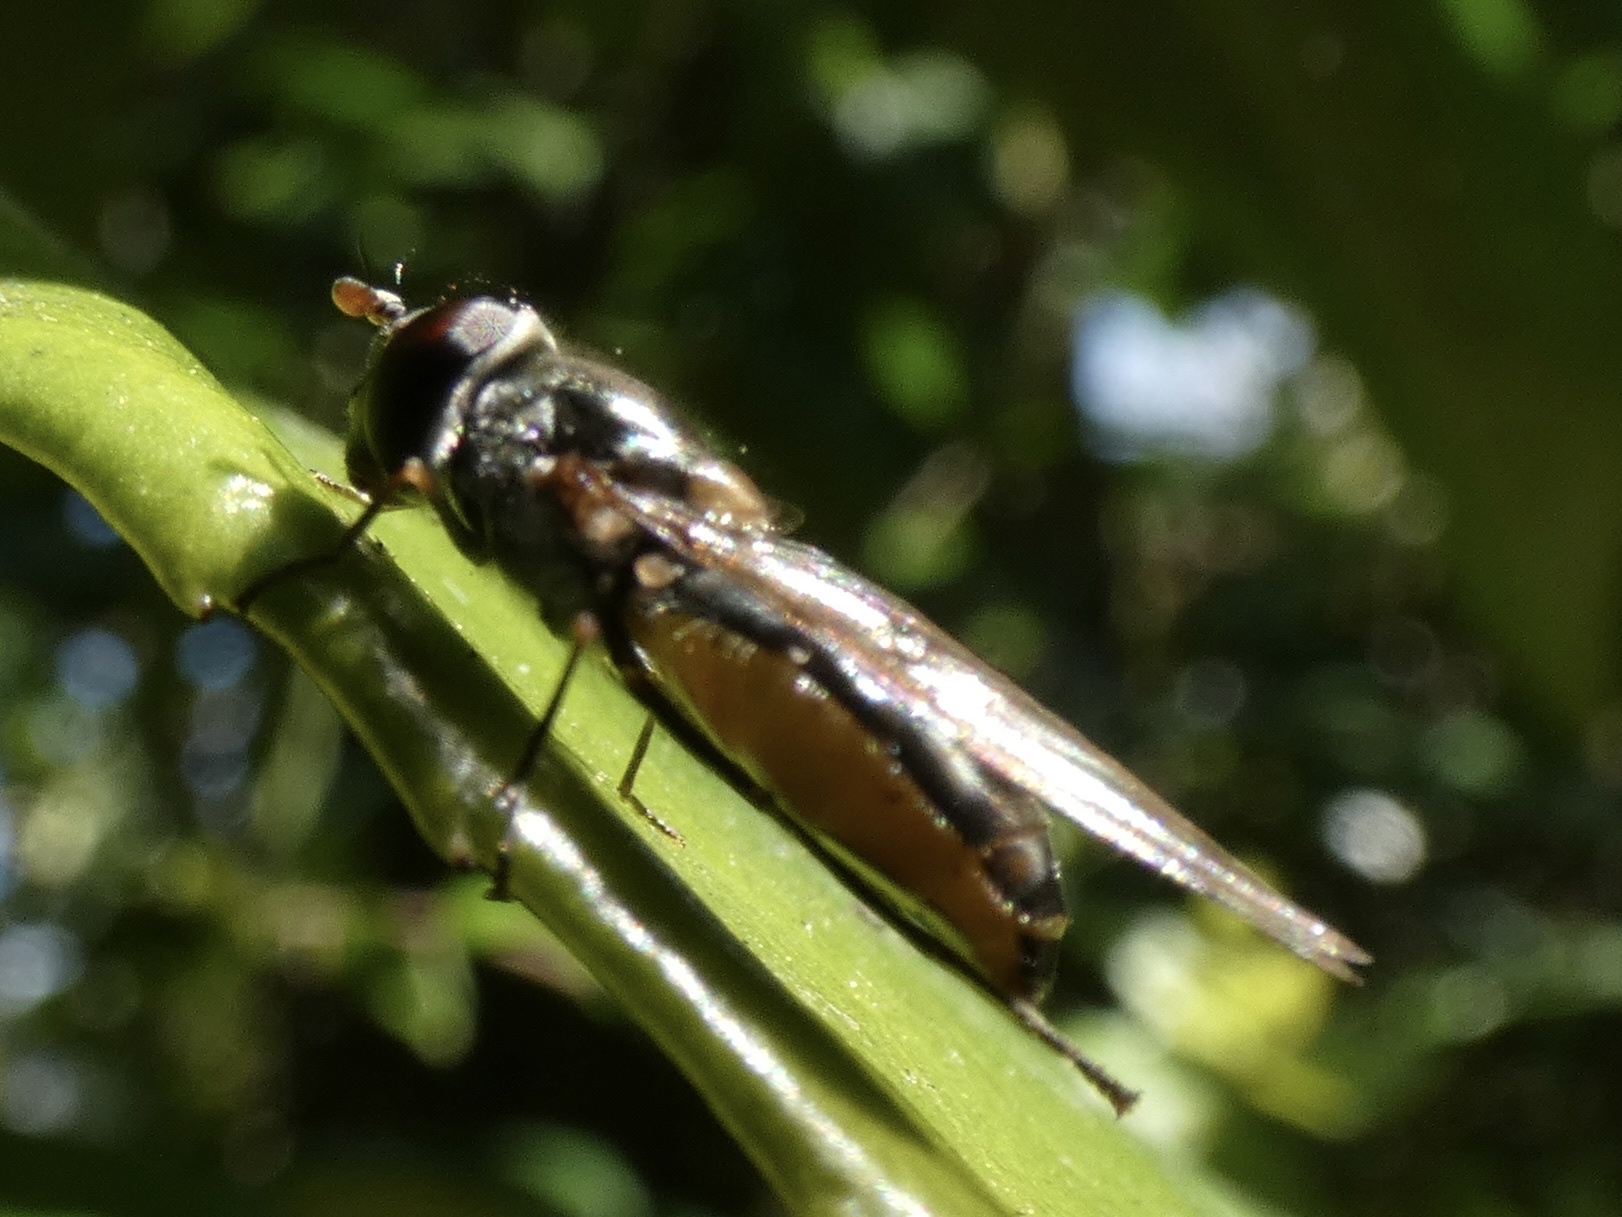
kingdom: Animalia
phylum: Arthropoda
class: Insecta
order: Diptera
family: Syrphidae
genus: Meliscaeva
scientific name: Meliscaeva auricollis
